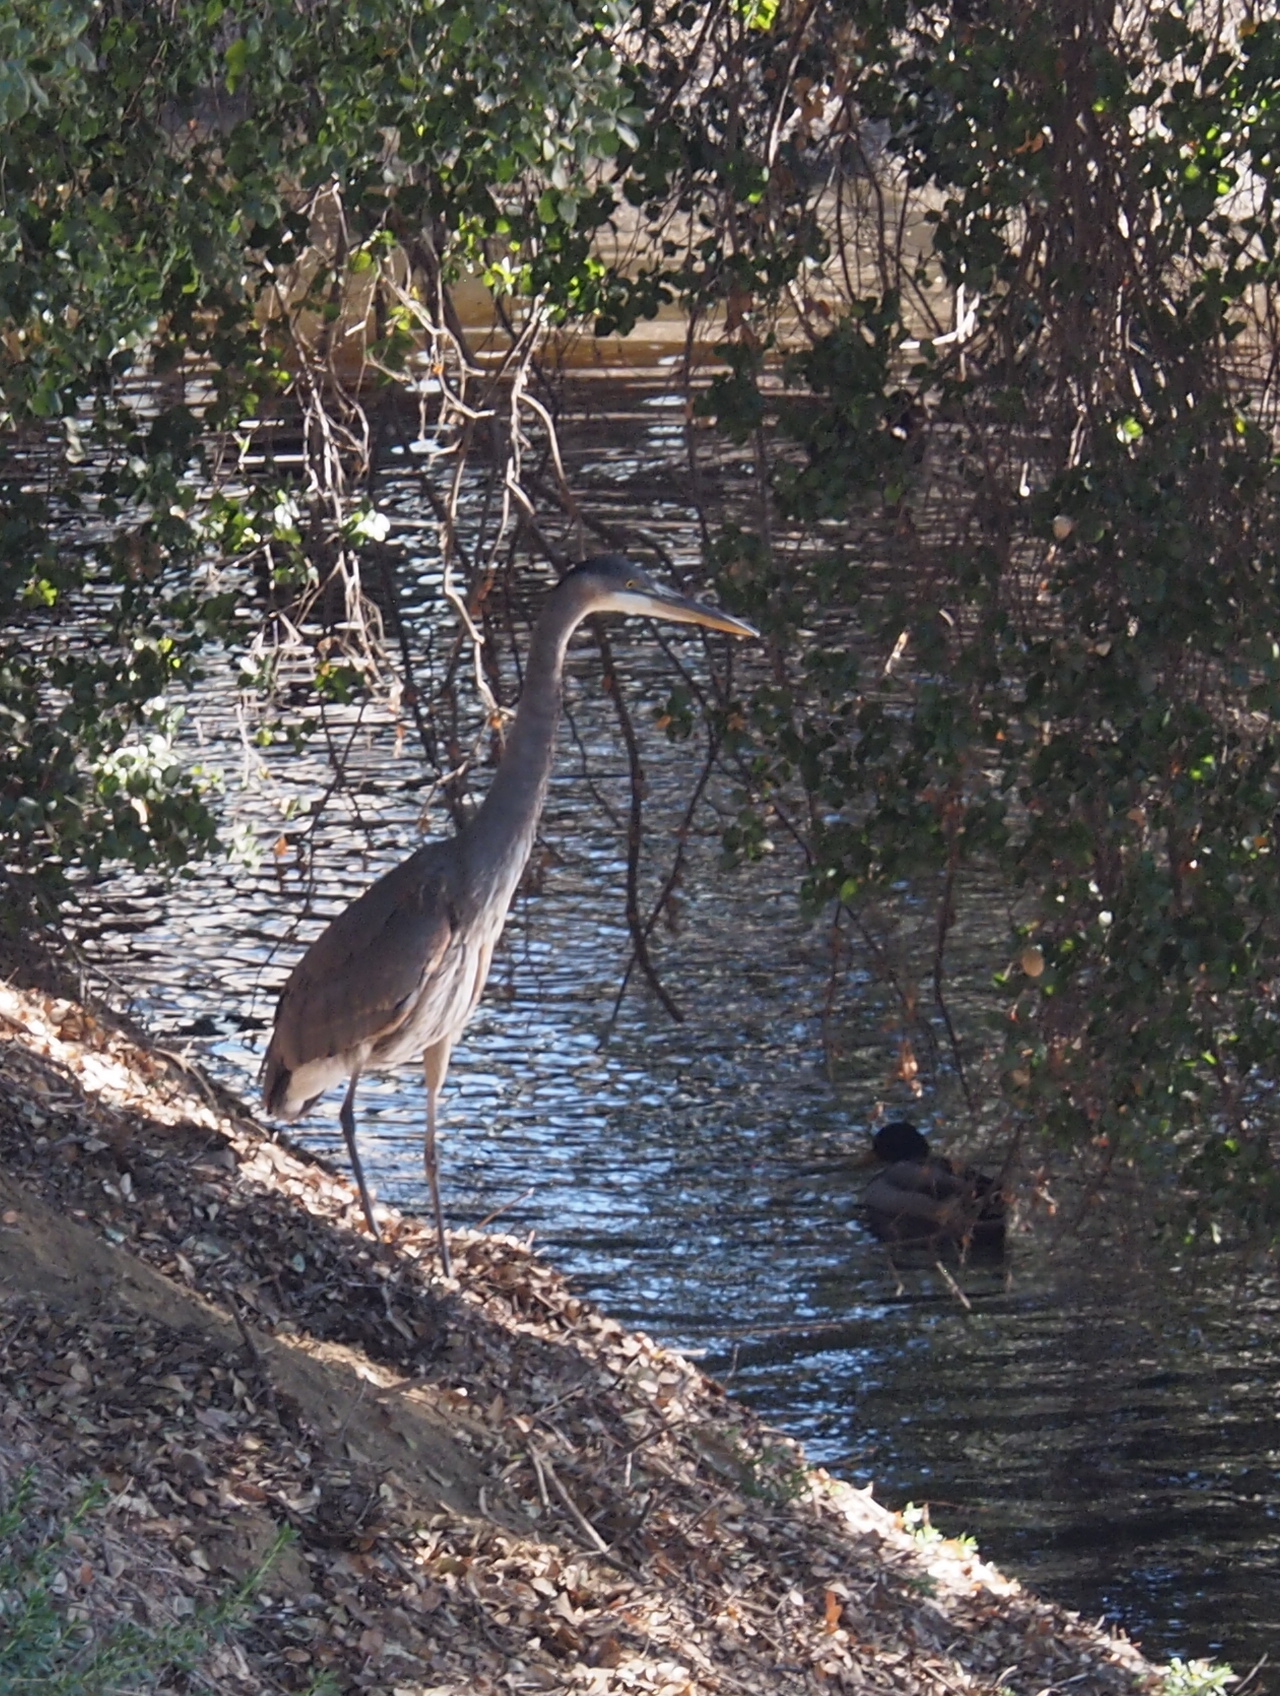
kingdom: Animalia
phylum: Chordata
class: Aves
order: Pelecaniformes
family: Ardeidae
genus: Ardea
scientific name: Ardea herodias
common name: Great blue heron
